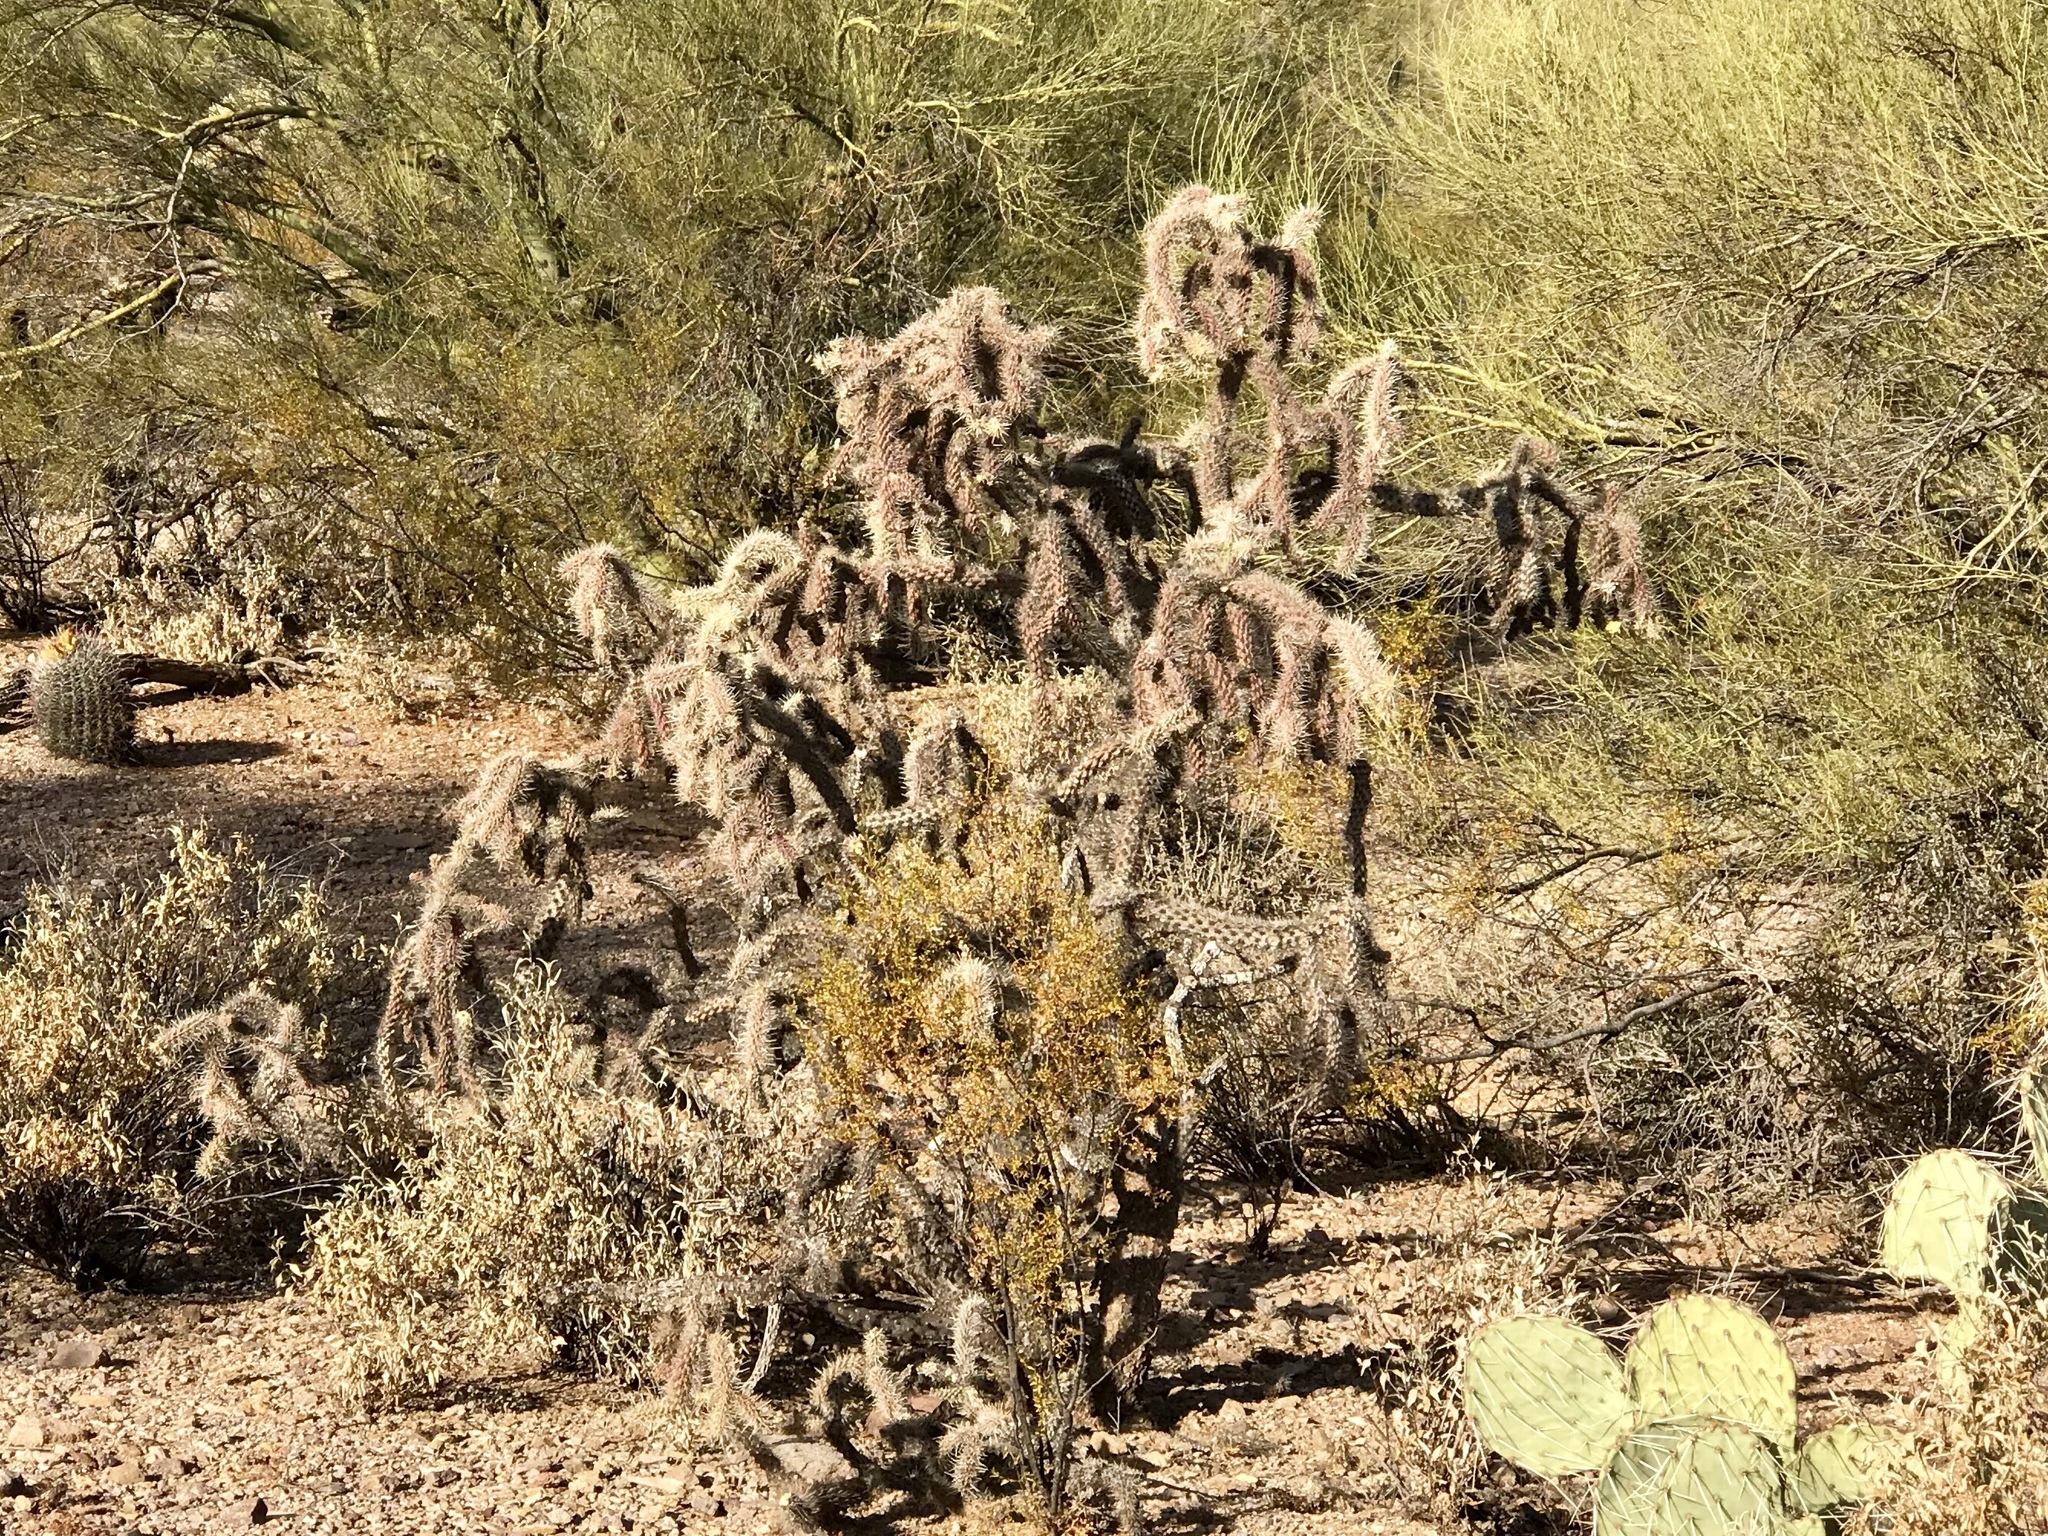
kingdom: Plantae
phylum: Tracheophyta
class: Magnoliopsida
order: Caryophyllales
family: Cactaceae
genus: Cylindropuntia
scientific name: Cylindropuntia imbricata
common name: Candelabrum cactus
